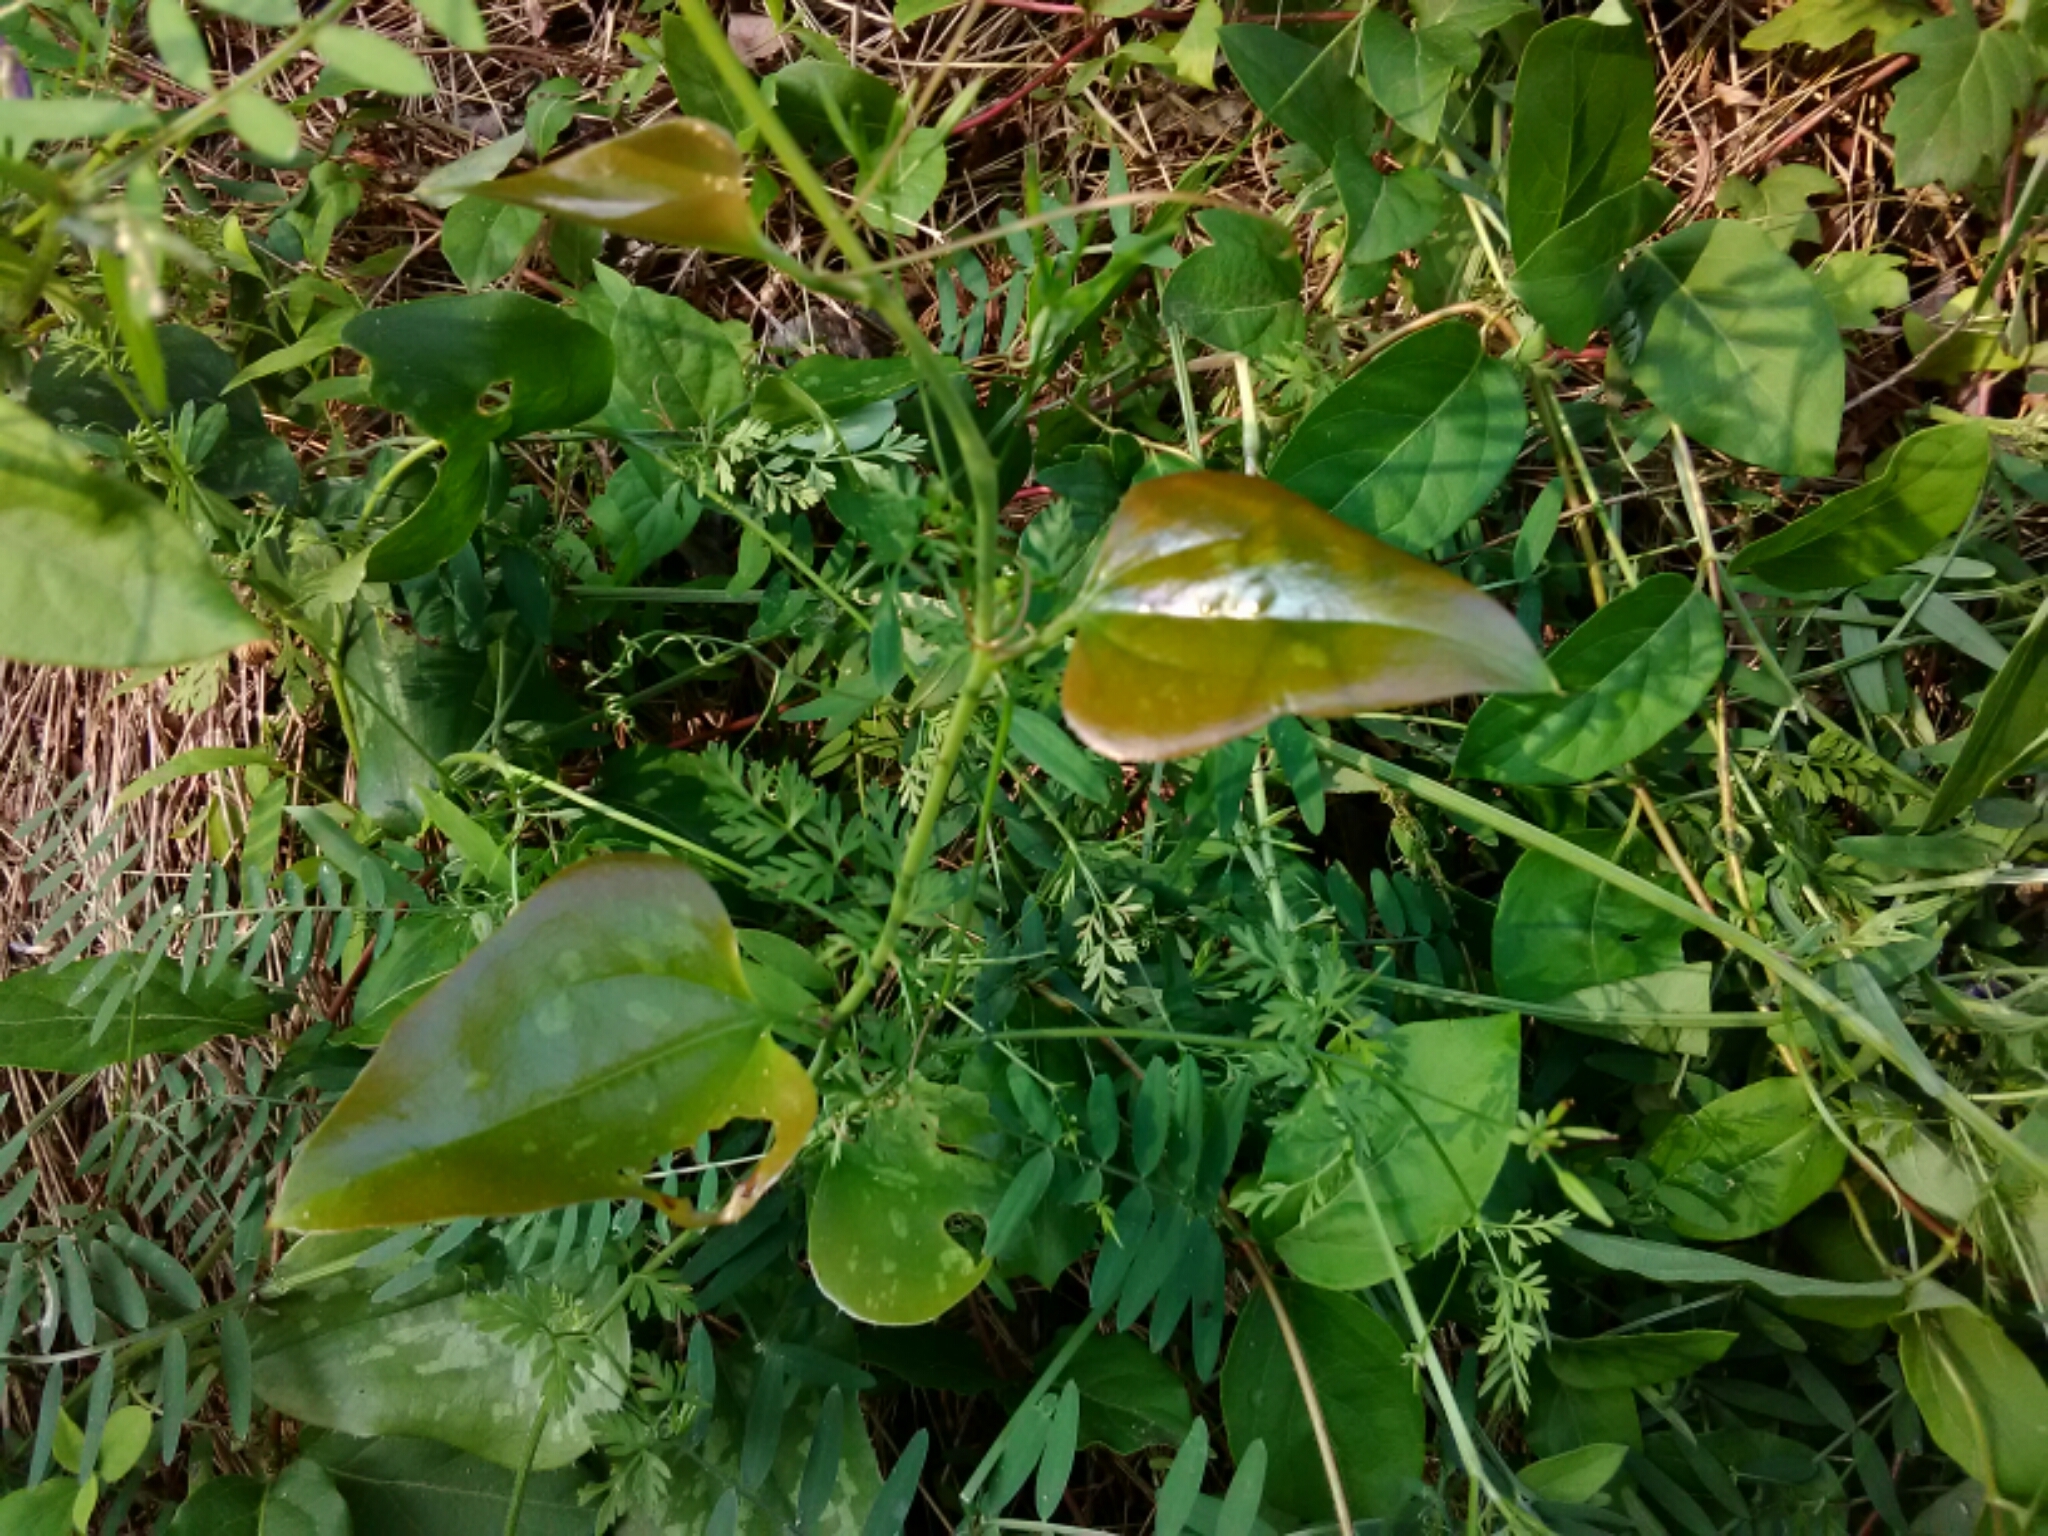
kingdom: Plantae
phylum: Tracheophyta
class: Liliopsida
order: Liliales
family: Smilacaceae
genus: Smilax
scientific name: Smilax glauca
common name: Cat greenbrier
